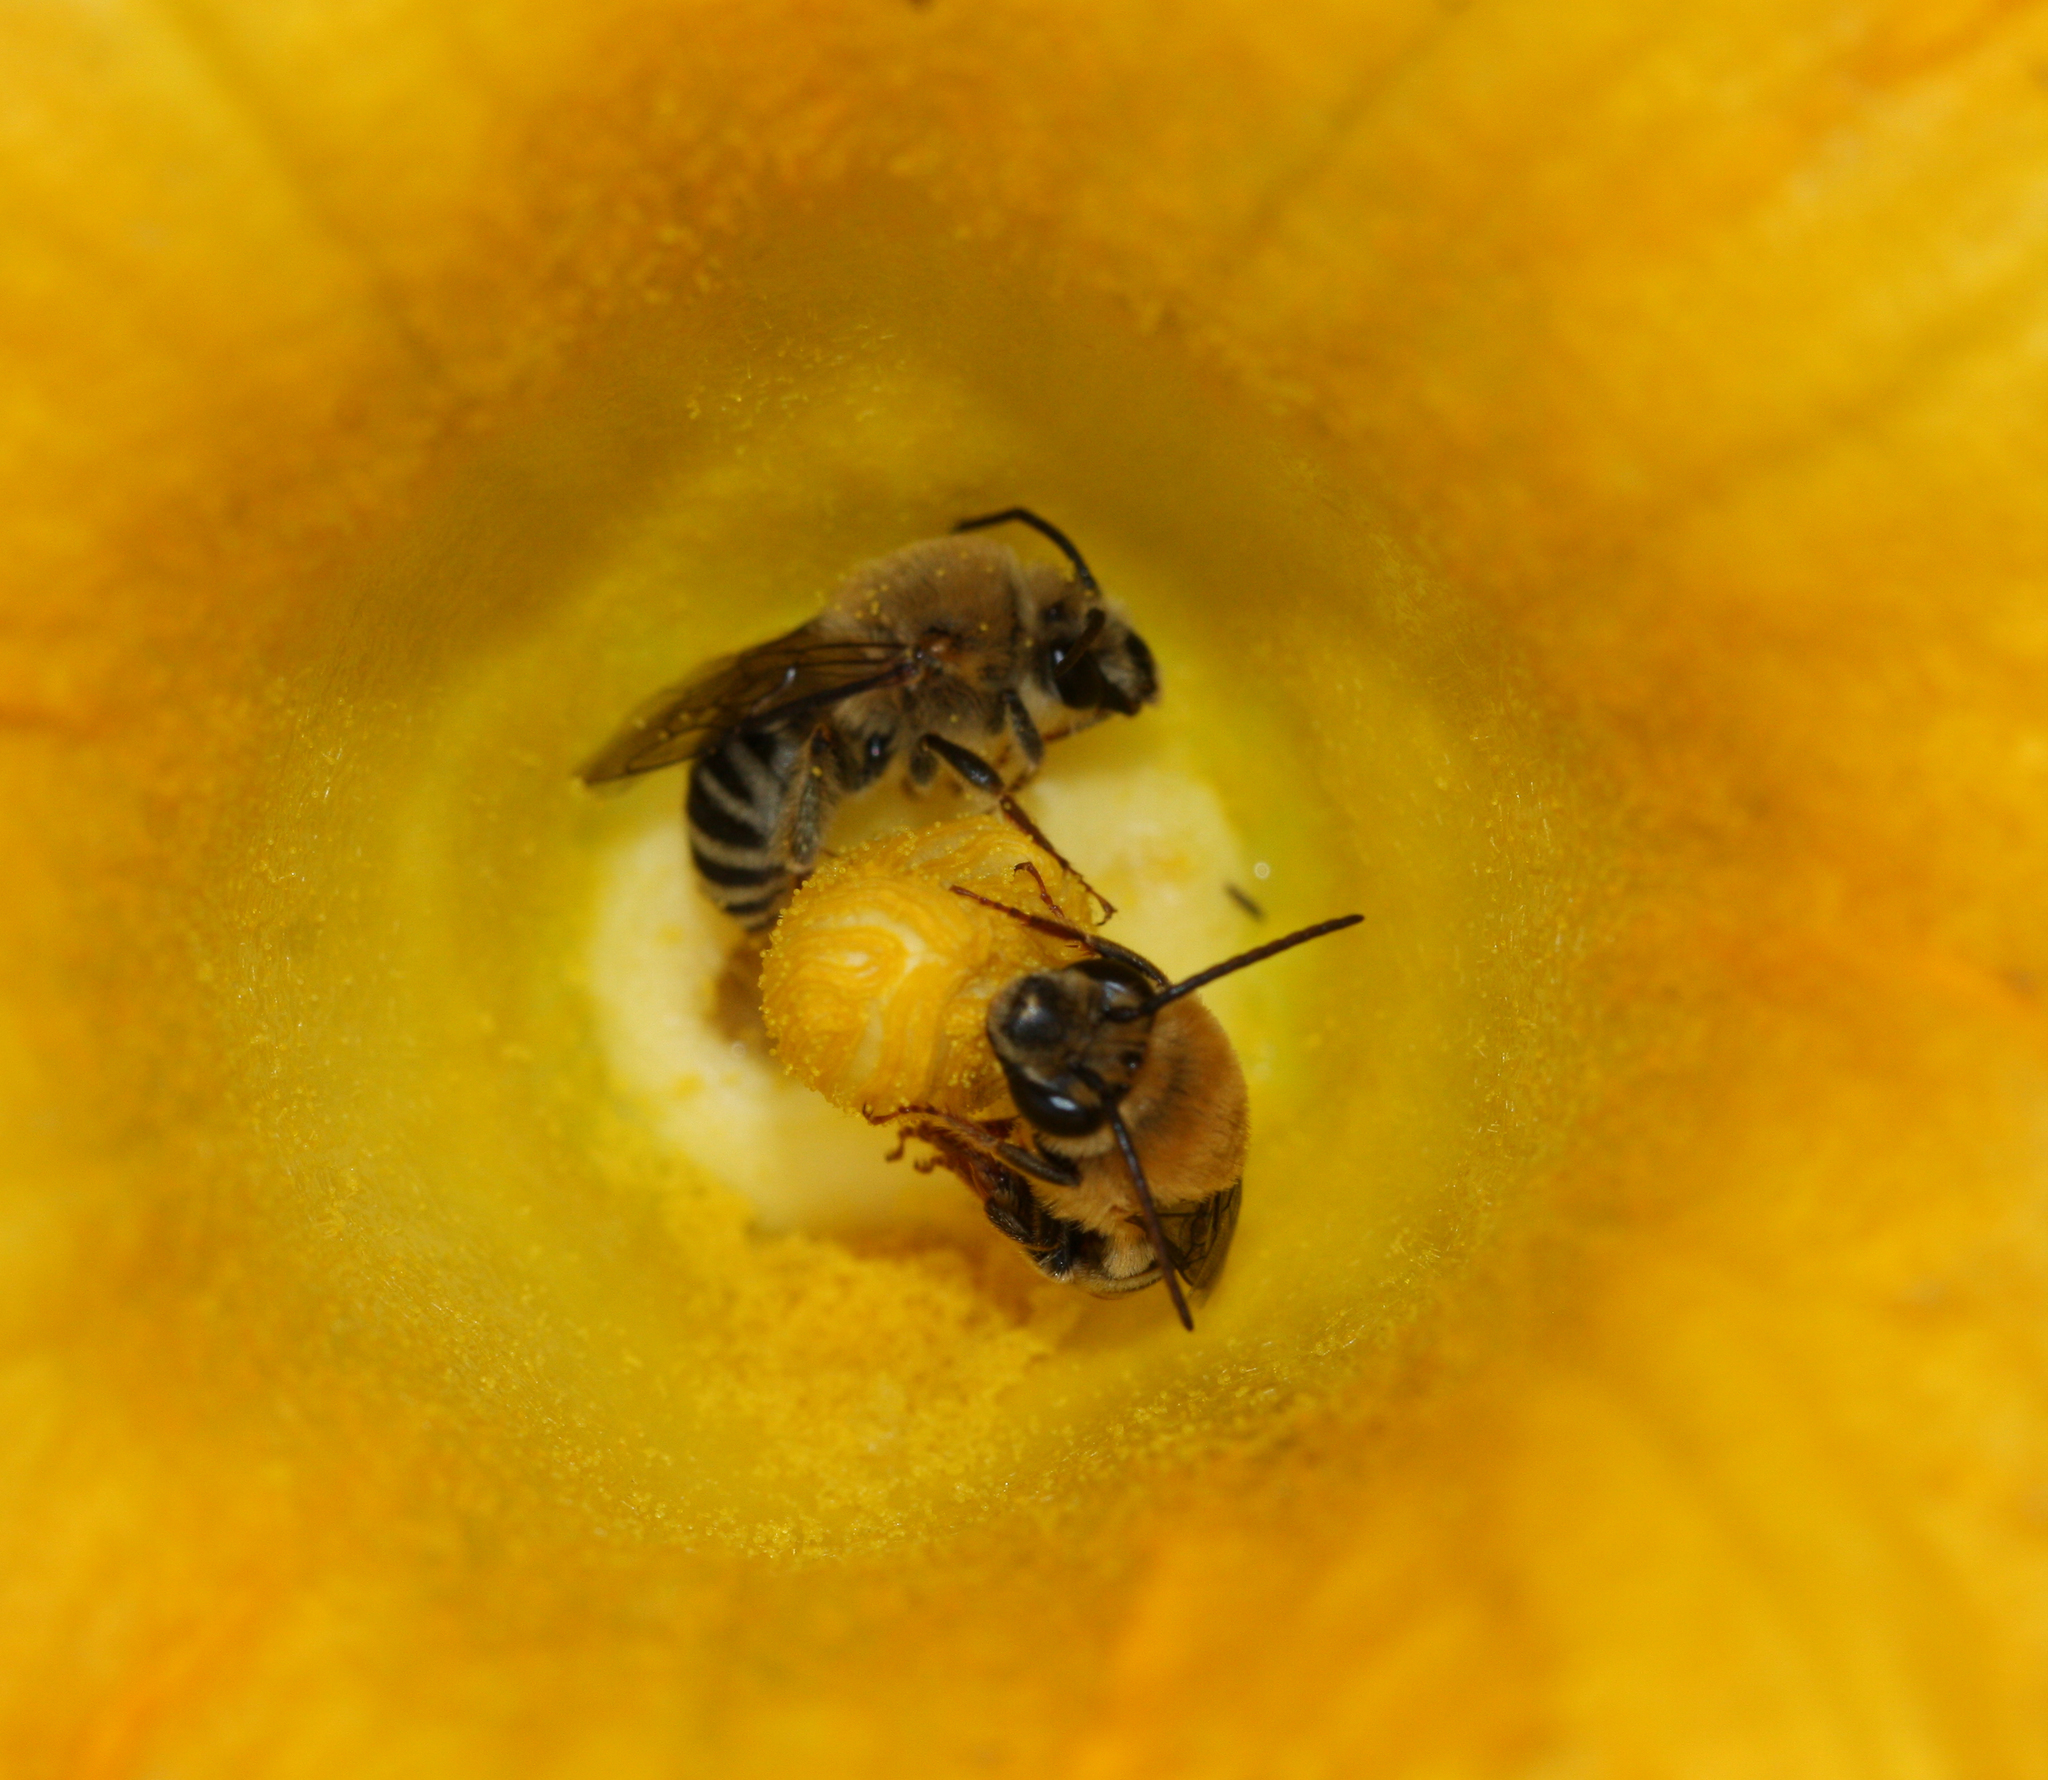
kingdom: Animalia
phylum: Arthropoda
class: Insecta
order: Hymenoptera
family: Apidae
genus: Peponapis
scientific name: Peponapis pruinosa
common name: Pruinose squash bee
